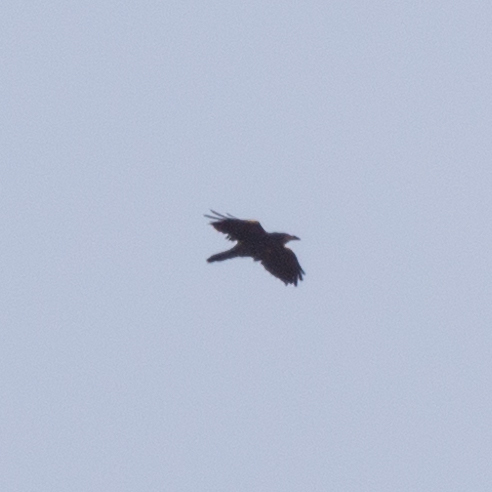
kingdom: Animalia
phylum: Chordata
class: Aves
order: Passeriformes
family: Corvidae
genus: Corvus
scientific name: Corvus corax
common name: Common raven
